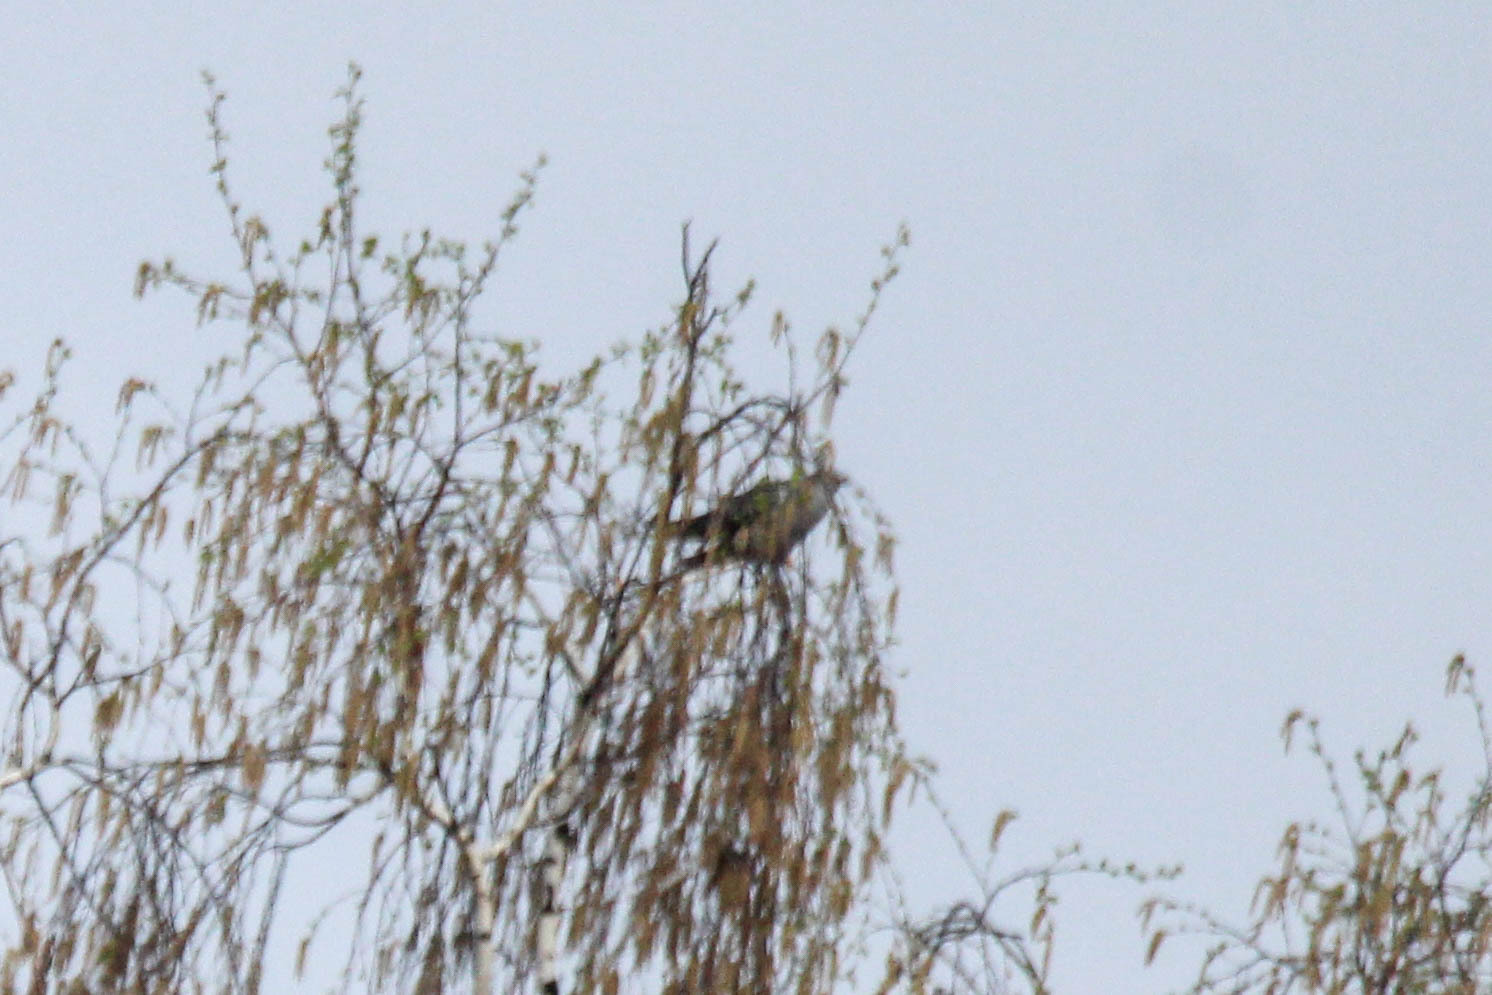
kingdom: Animalia
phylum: Chordata
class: Aves
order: Cuculiformes
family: Cuculidae
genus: Cuculus
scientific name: Cuculus canorus
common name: Common cuckoo
